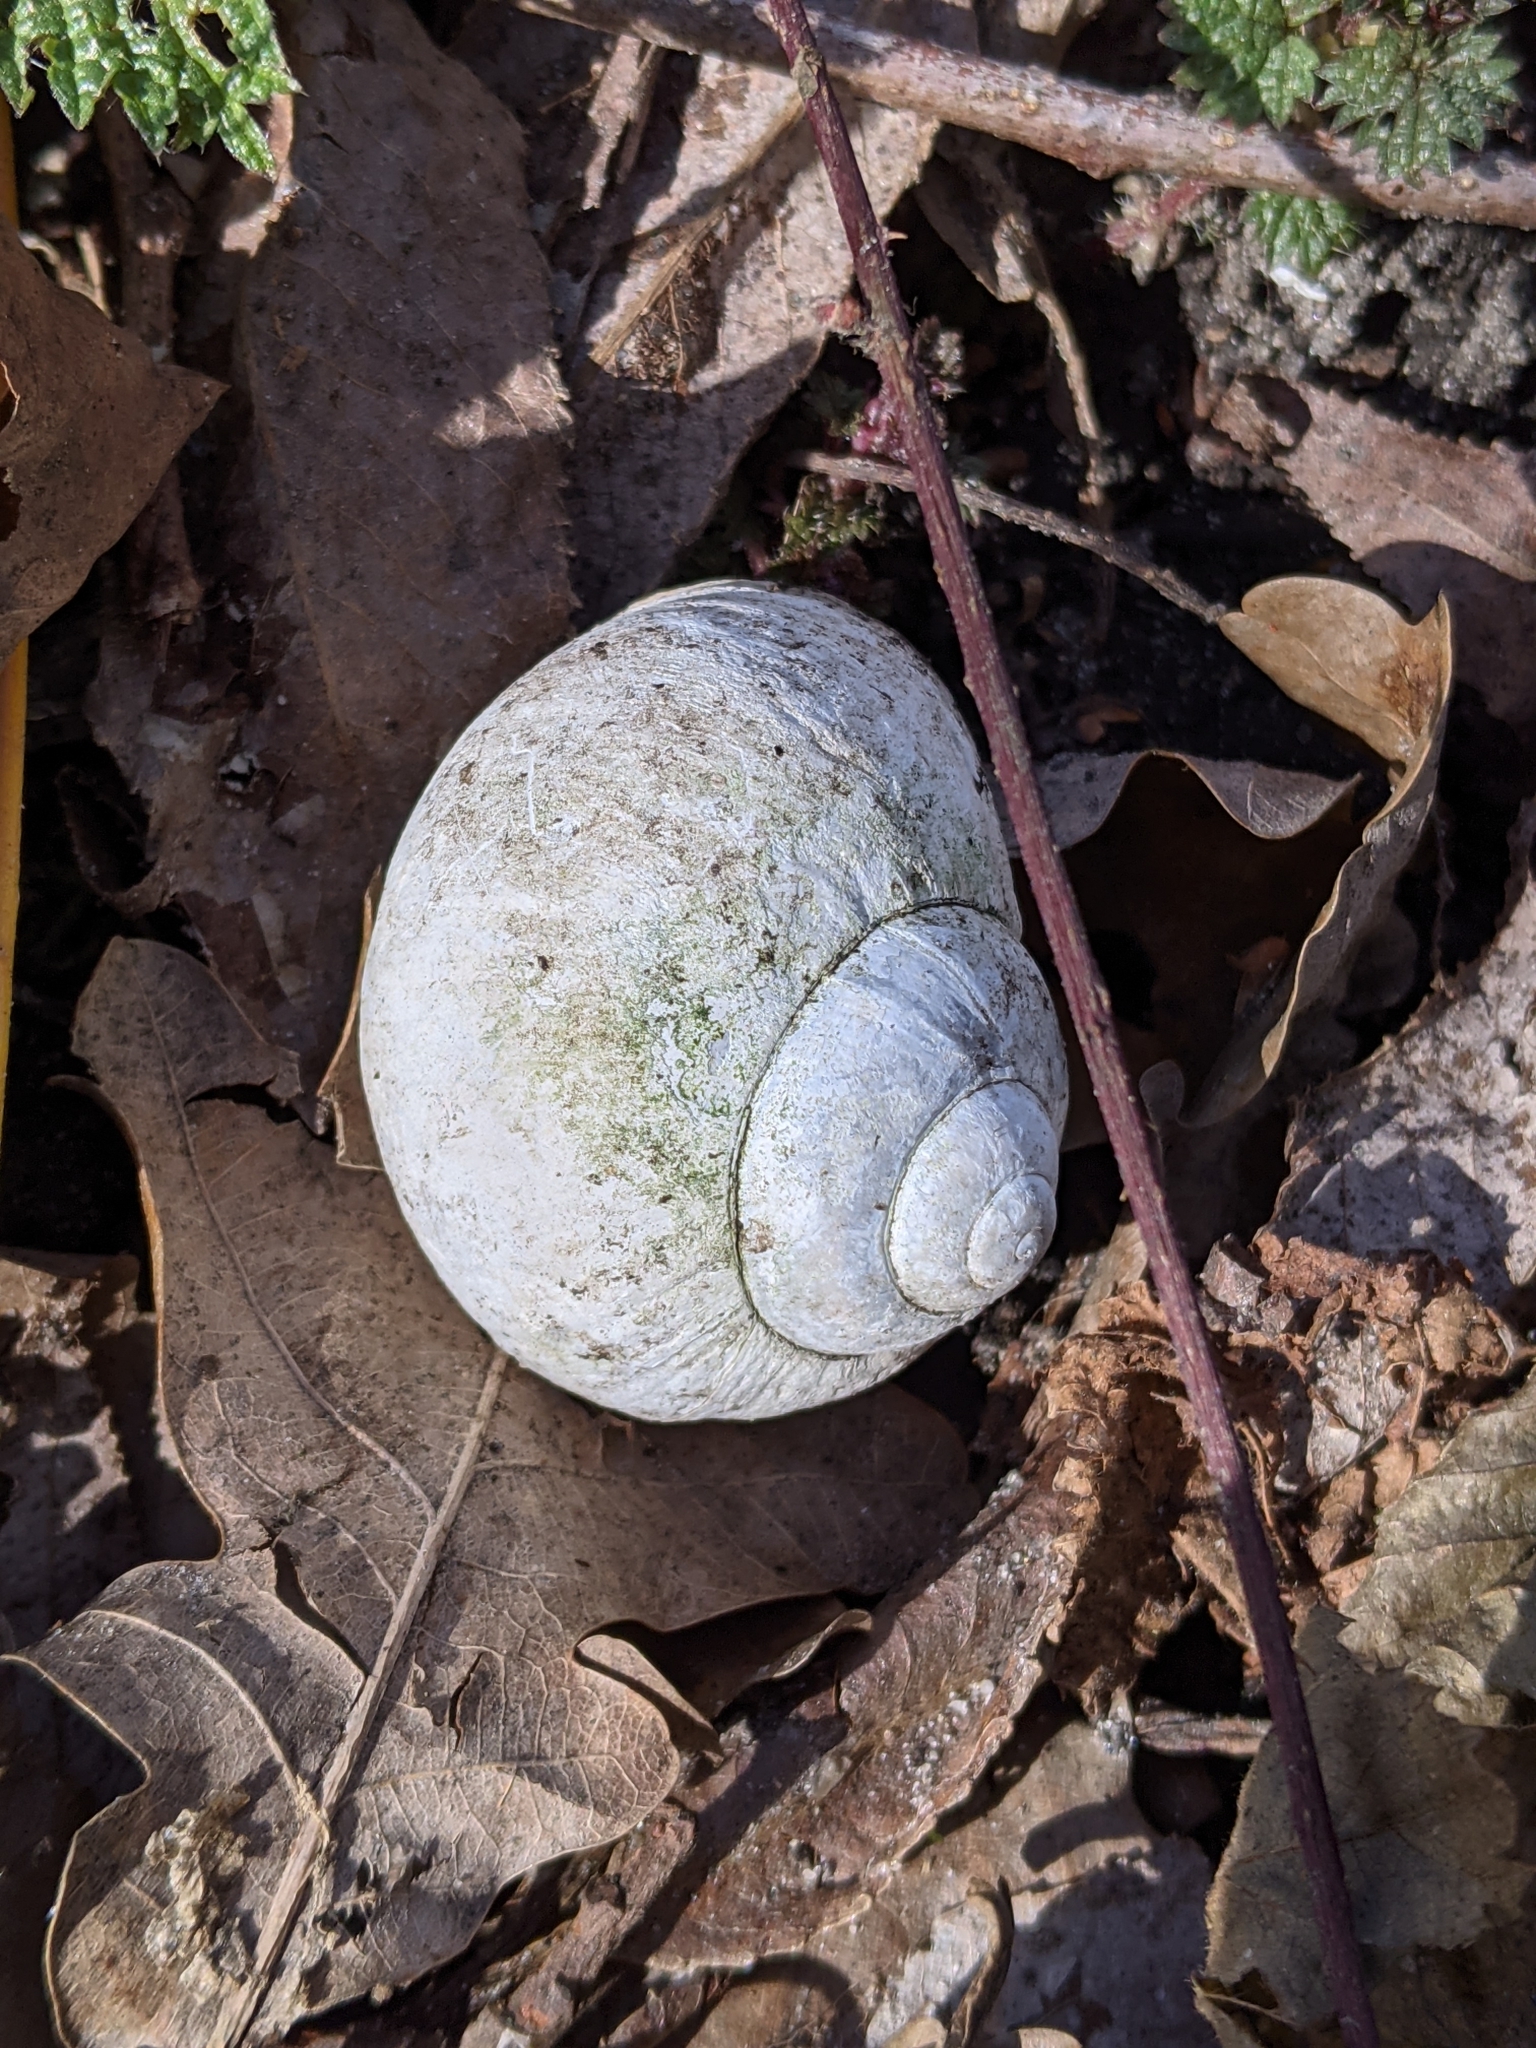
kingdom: Animalia
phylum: Mollusca
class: Gastropoda
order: Stylommatophora
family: Helicidae
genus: Helix
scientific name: Helix pomatia
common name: Roman snail
